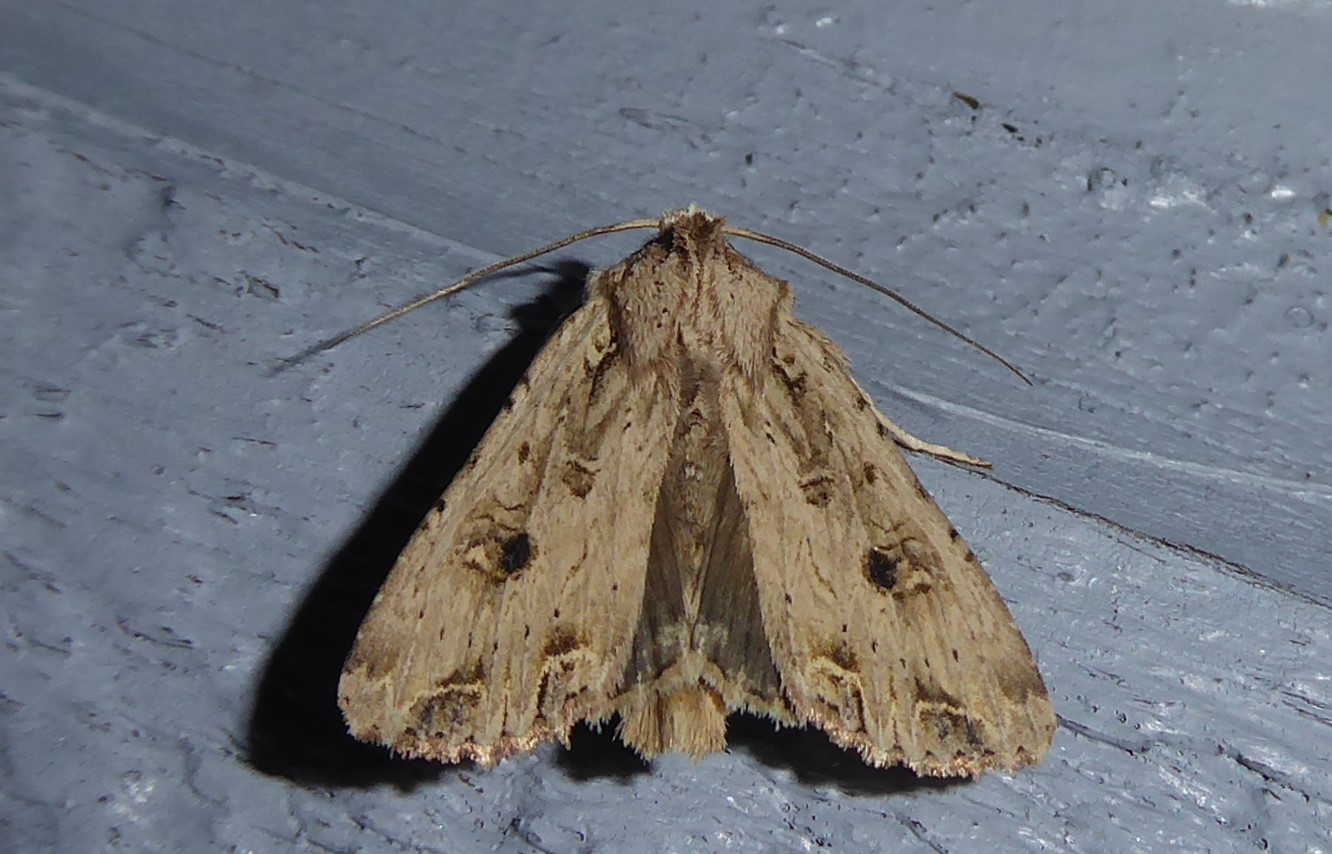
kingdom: Animalia
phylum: Arthropoda
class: Insecta
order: Lepidoptera
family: Noctuidae
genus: Ichneutica
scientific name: Ichneutica lignana
